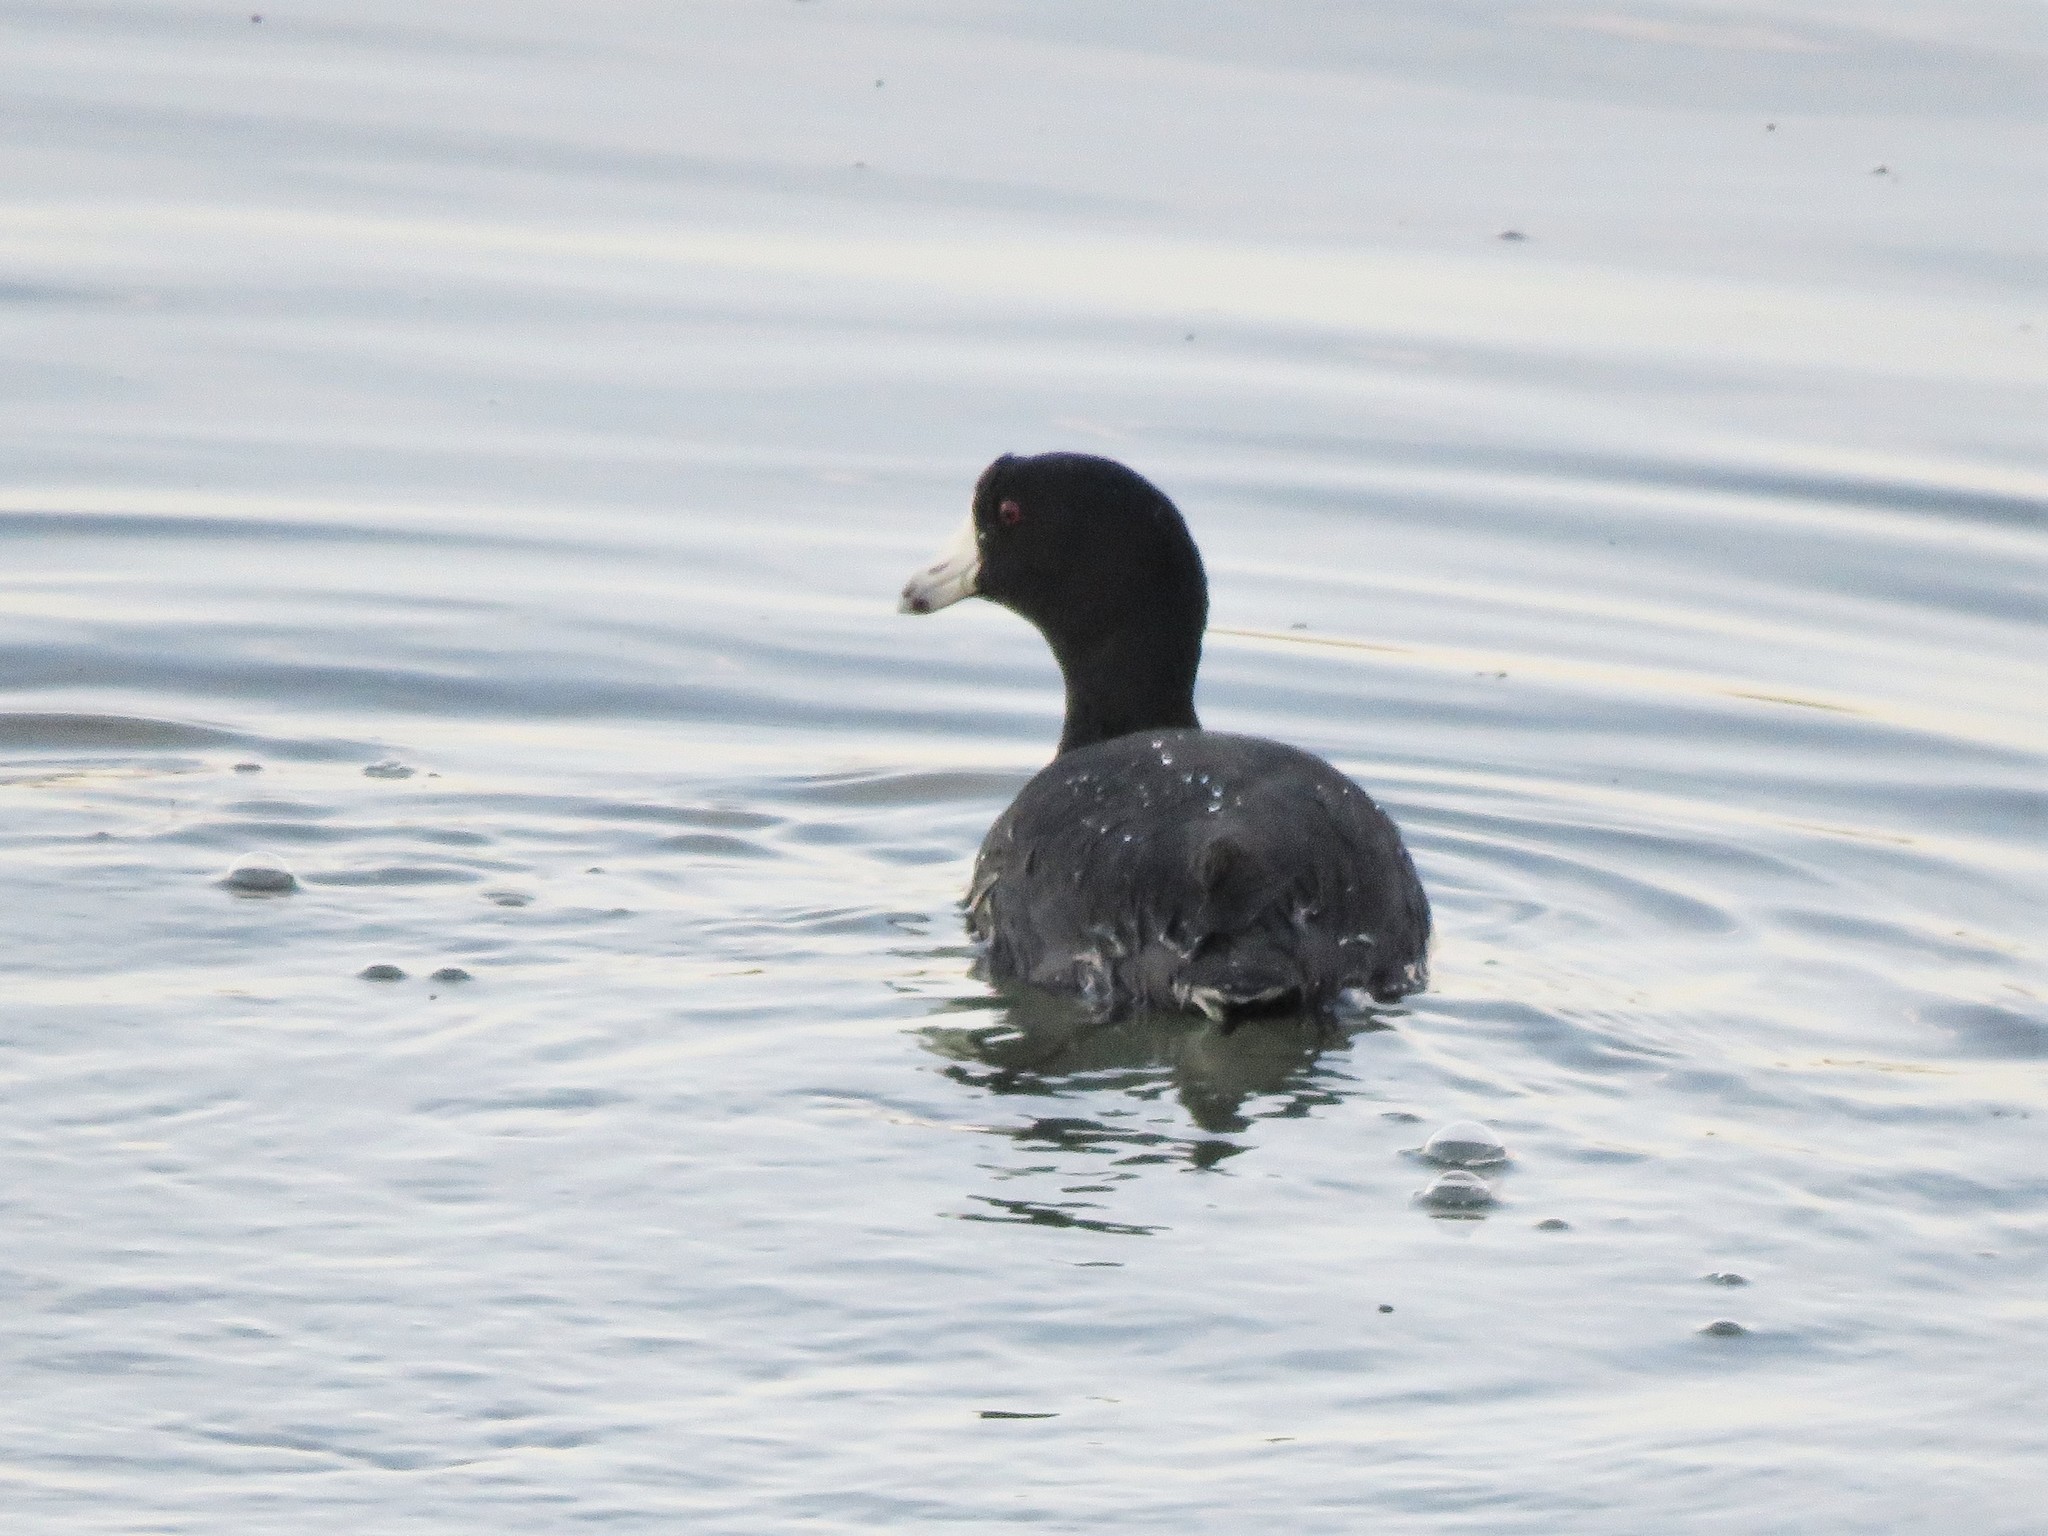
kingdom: Animalia
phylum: Chordata
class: Aves
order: Gruiformes
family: Rallidae
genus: Fulica
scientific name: Fulica americana
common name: American coot
